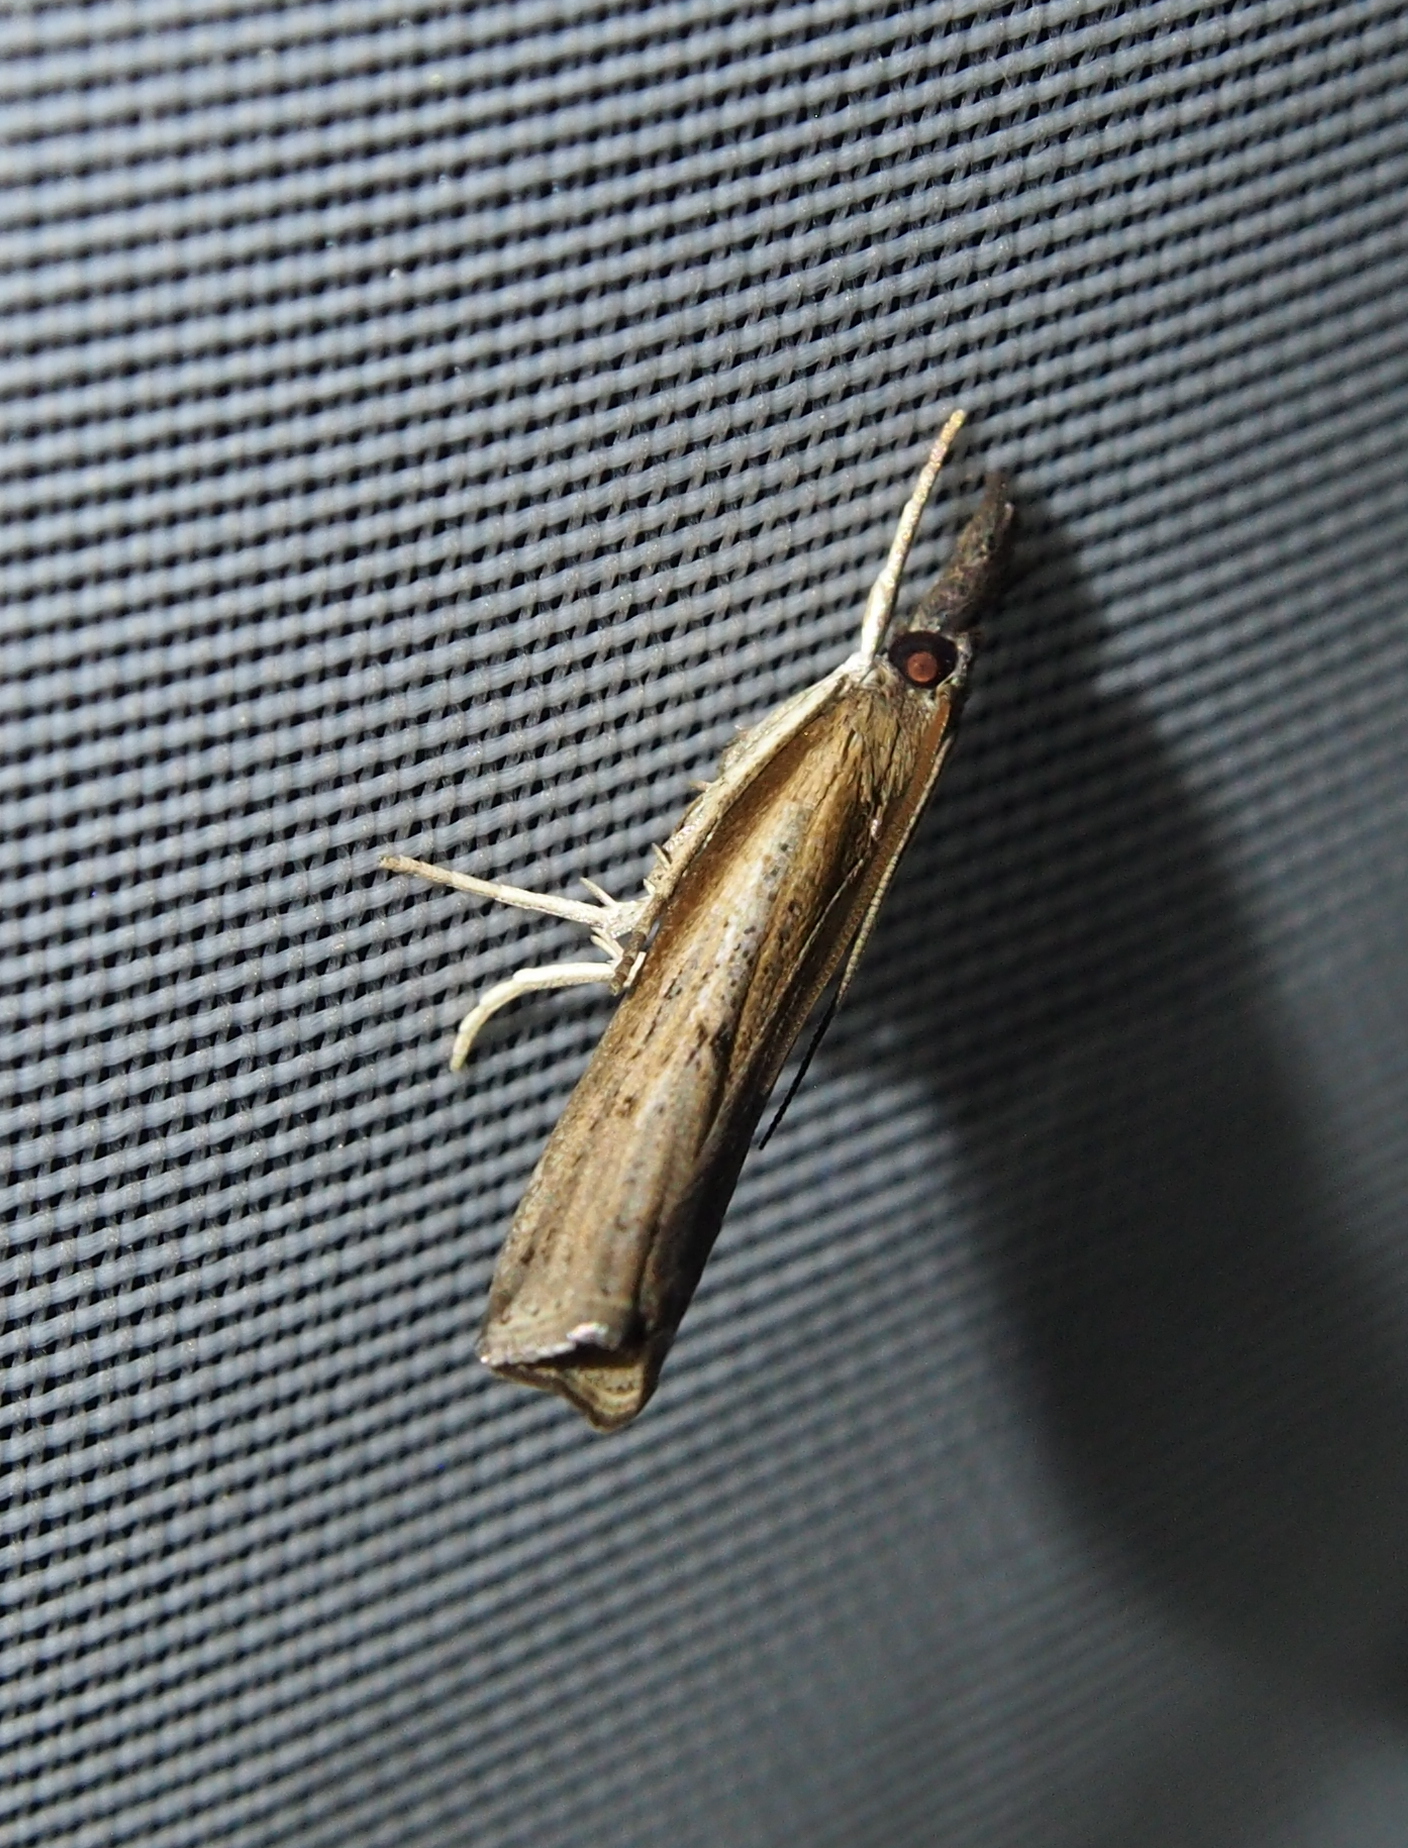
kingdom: Animalia
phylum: Arthropoda
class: Insecta
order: Lepidoptera
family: Crambidae
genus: Fissicrambus
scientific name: Fissicrambus mutabilis
